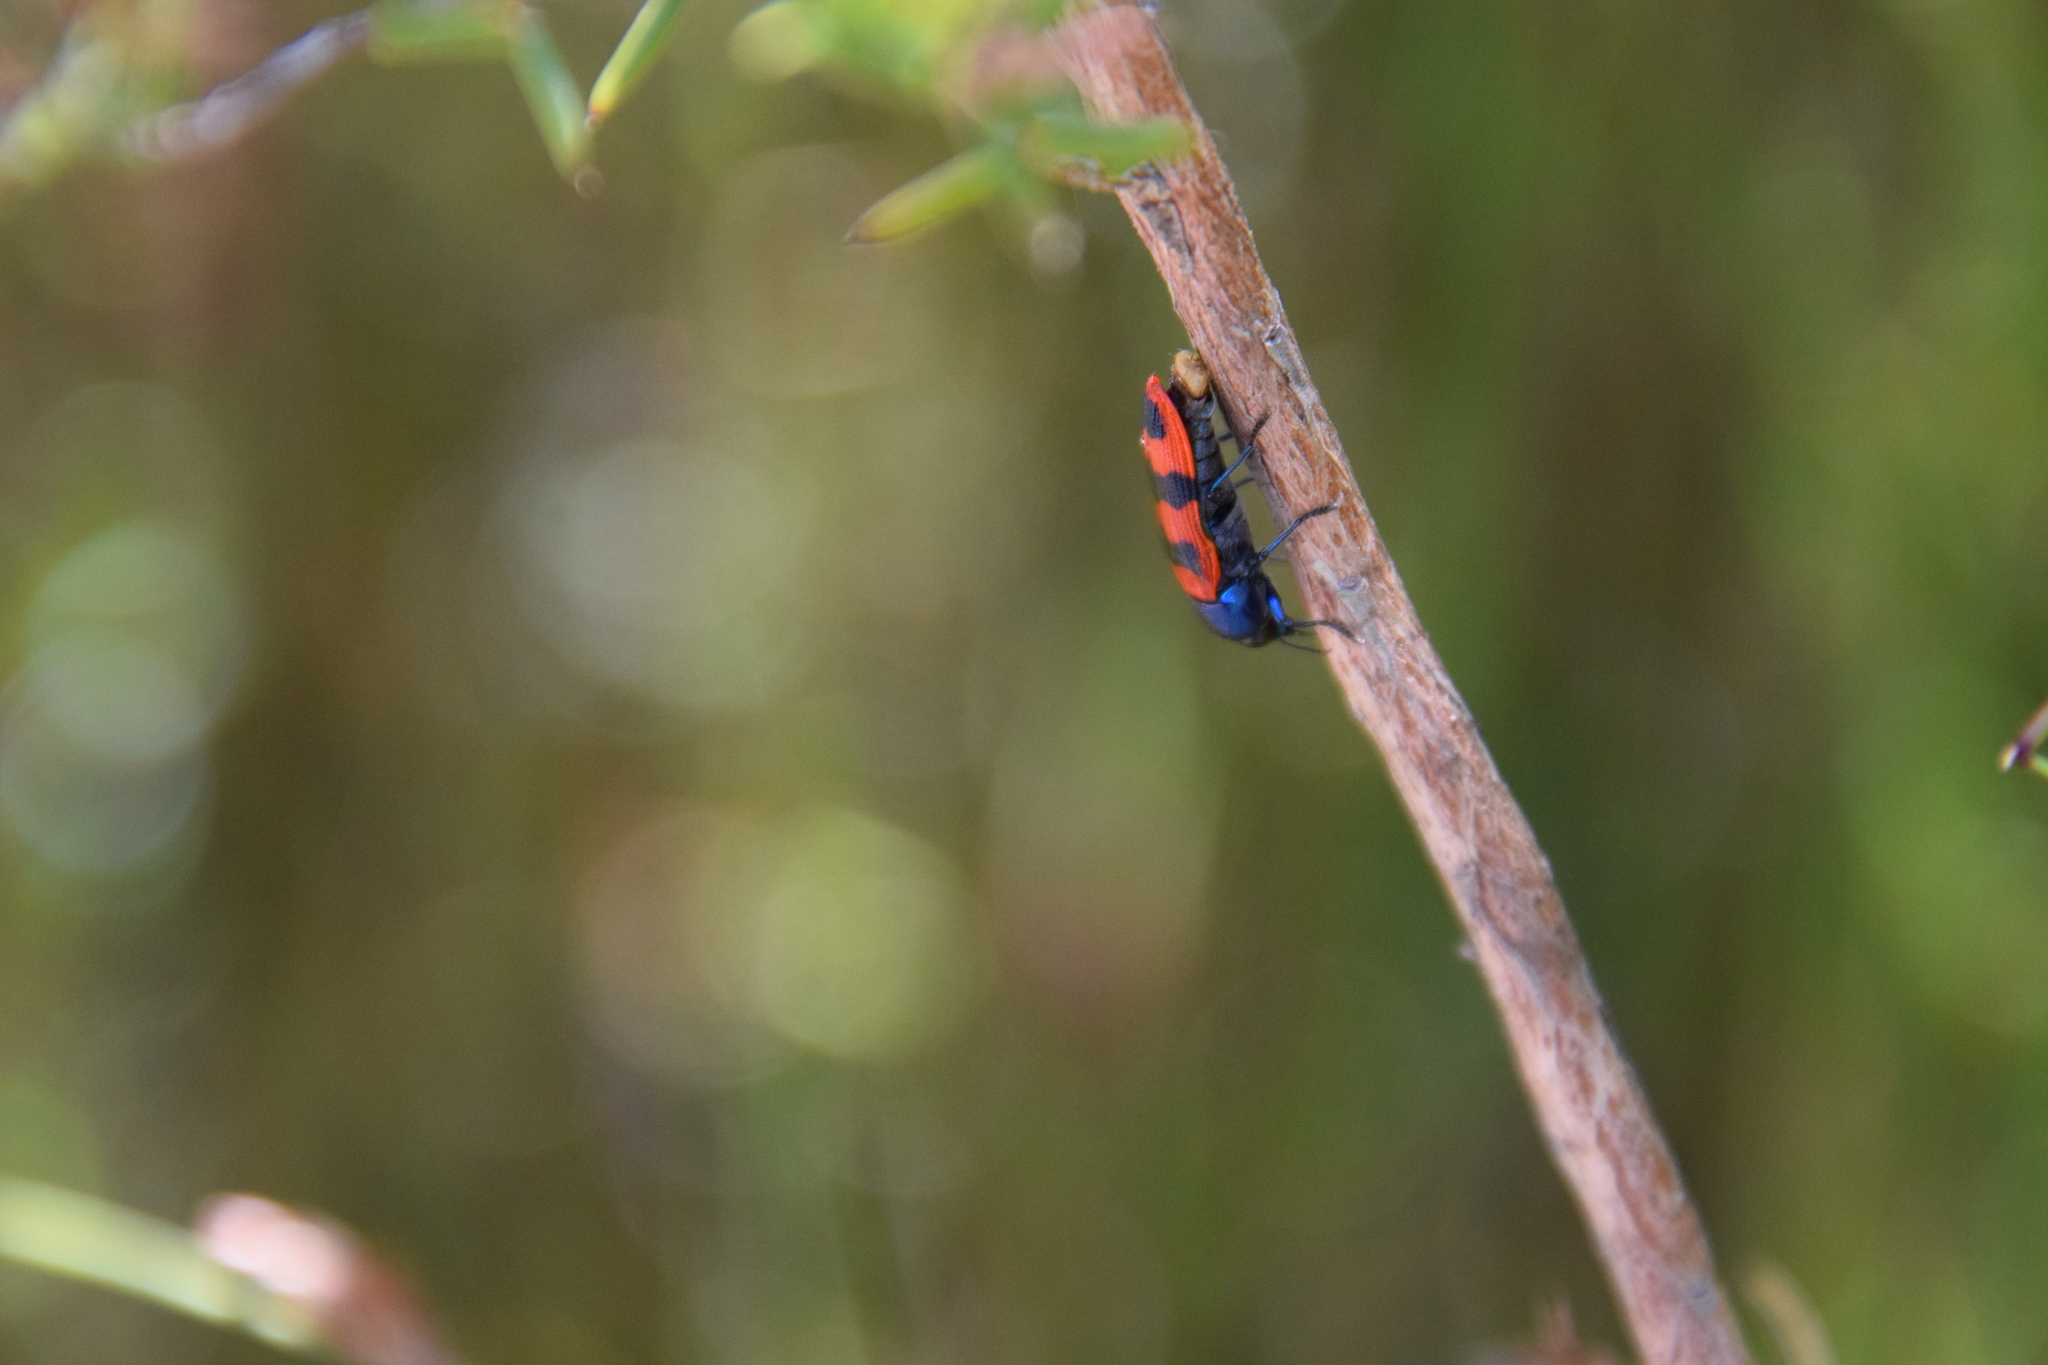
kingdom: Animalia
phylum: Arthropoda
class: Insecta
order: Coleoptera
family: Buprestidae
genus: Castiarina
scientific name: Castiarina crenata
